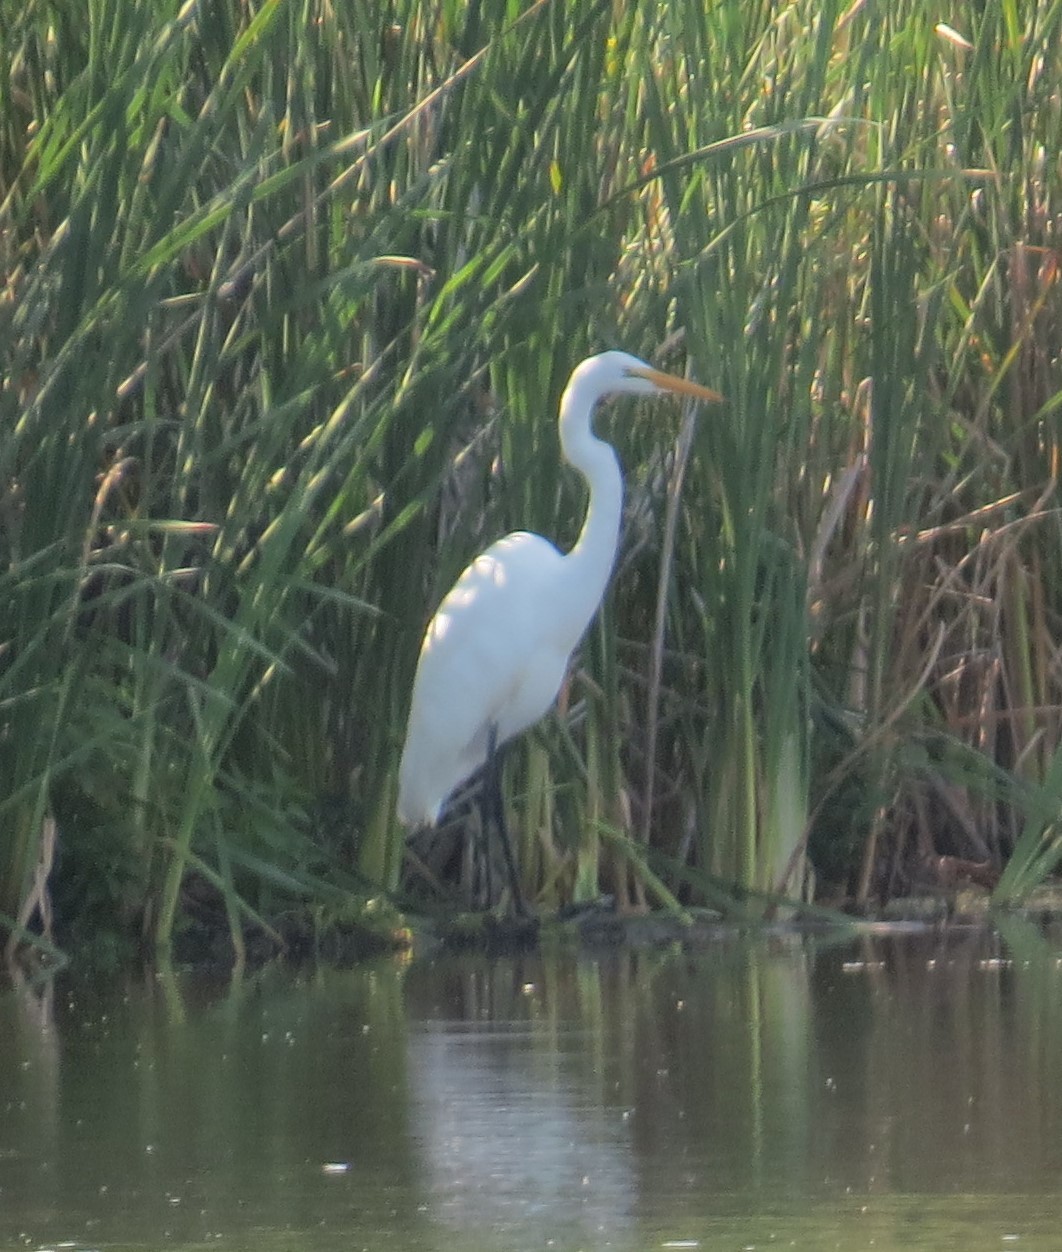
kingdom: Animalia
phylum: Chordata
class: Aves
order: Pelecaniformes
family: Ardeidae
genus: Ardea
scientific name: Ardea alba
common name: Great egret
